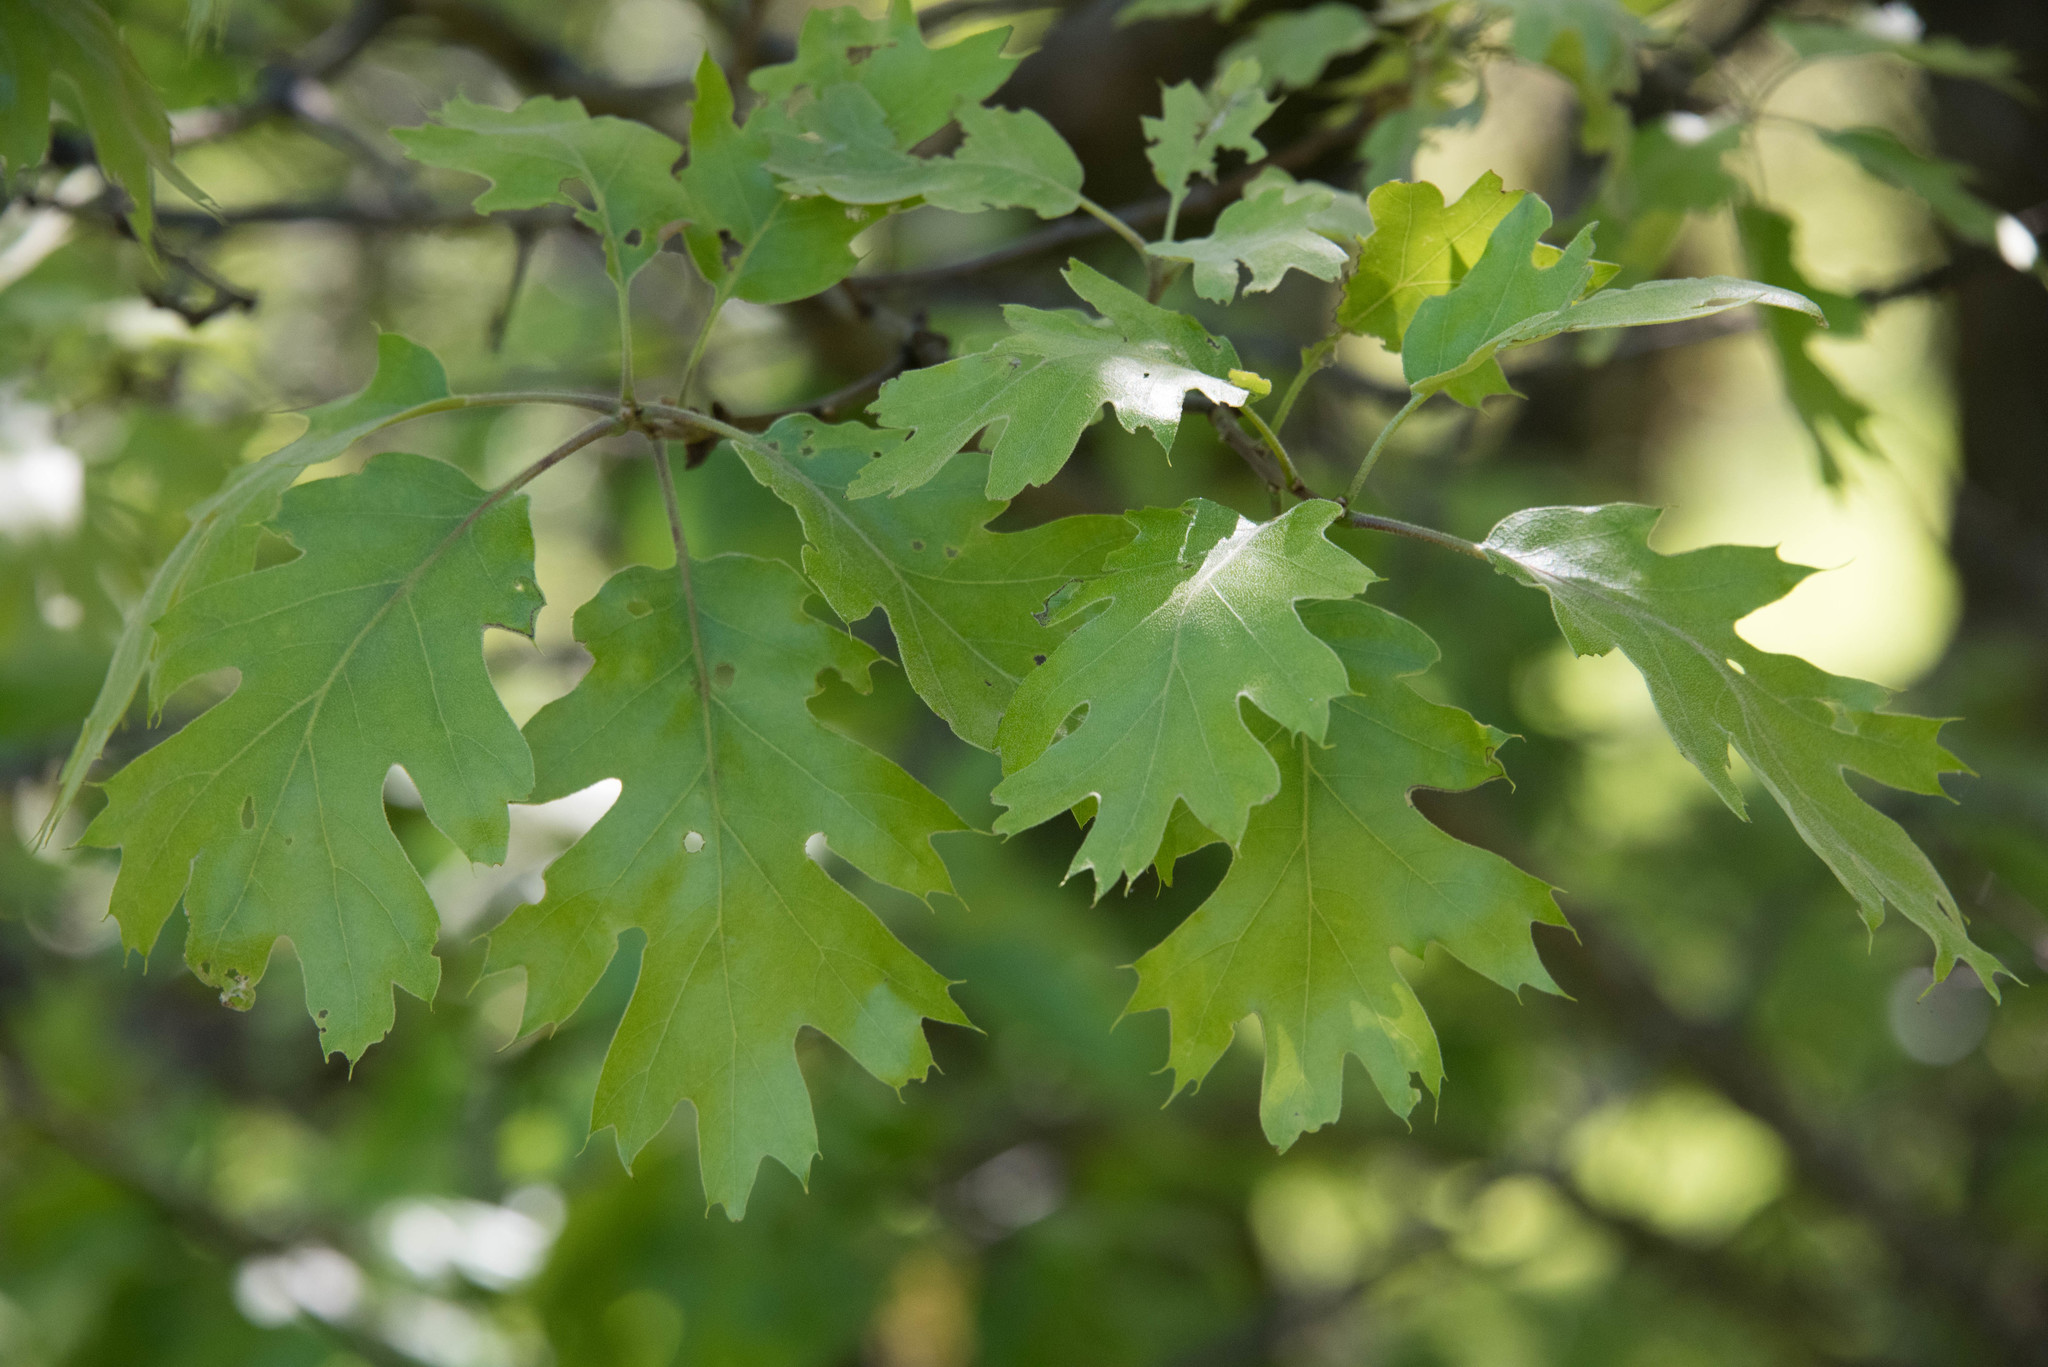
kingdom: Plantae
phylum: Tracheophyta
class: Magnoliopsida
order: Fagales
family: Fagaceae
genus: Quercus
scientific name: Quercus kelloggii
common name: California black oak
